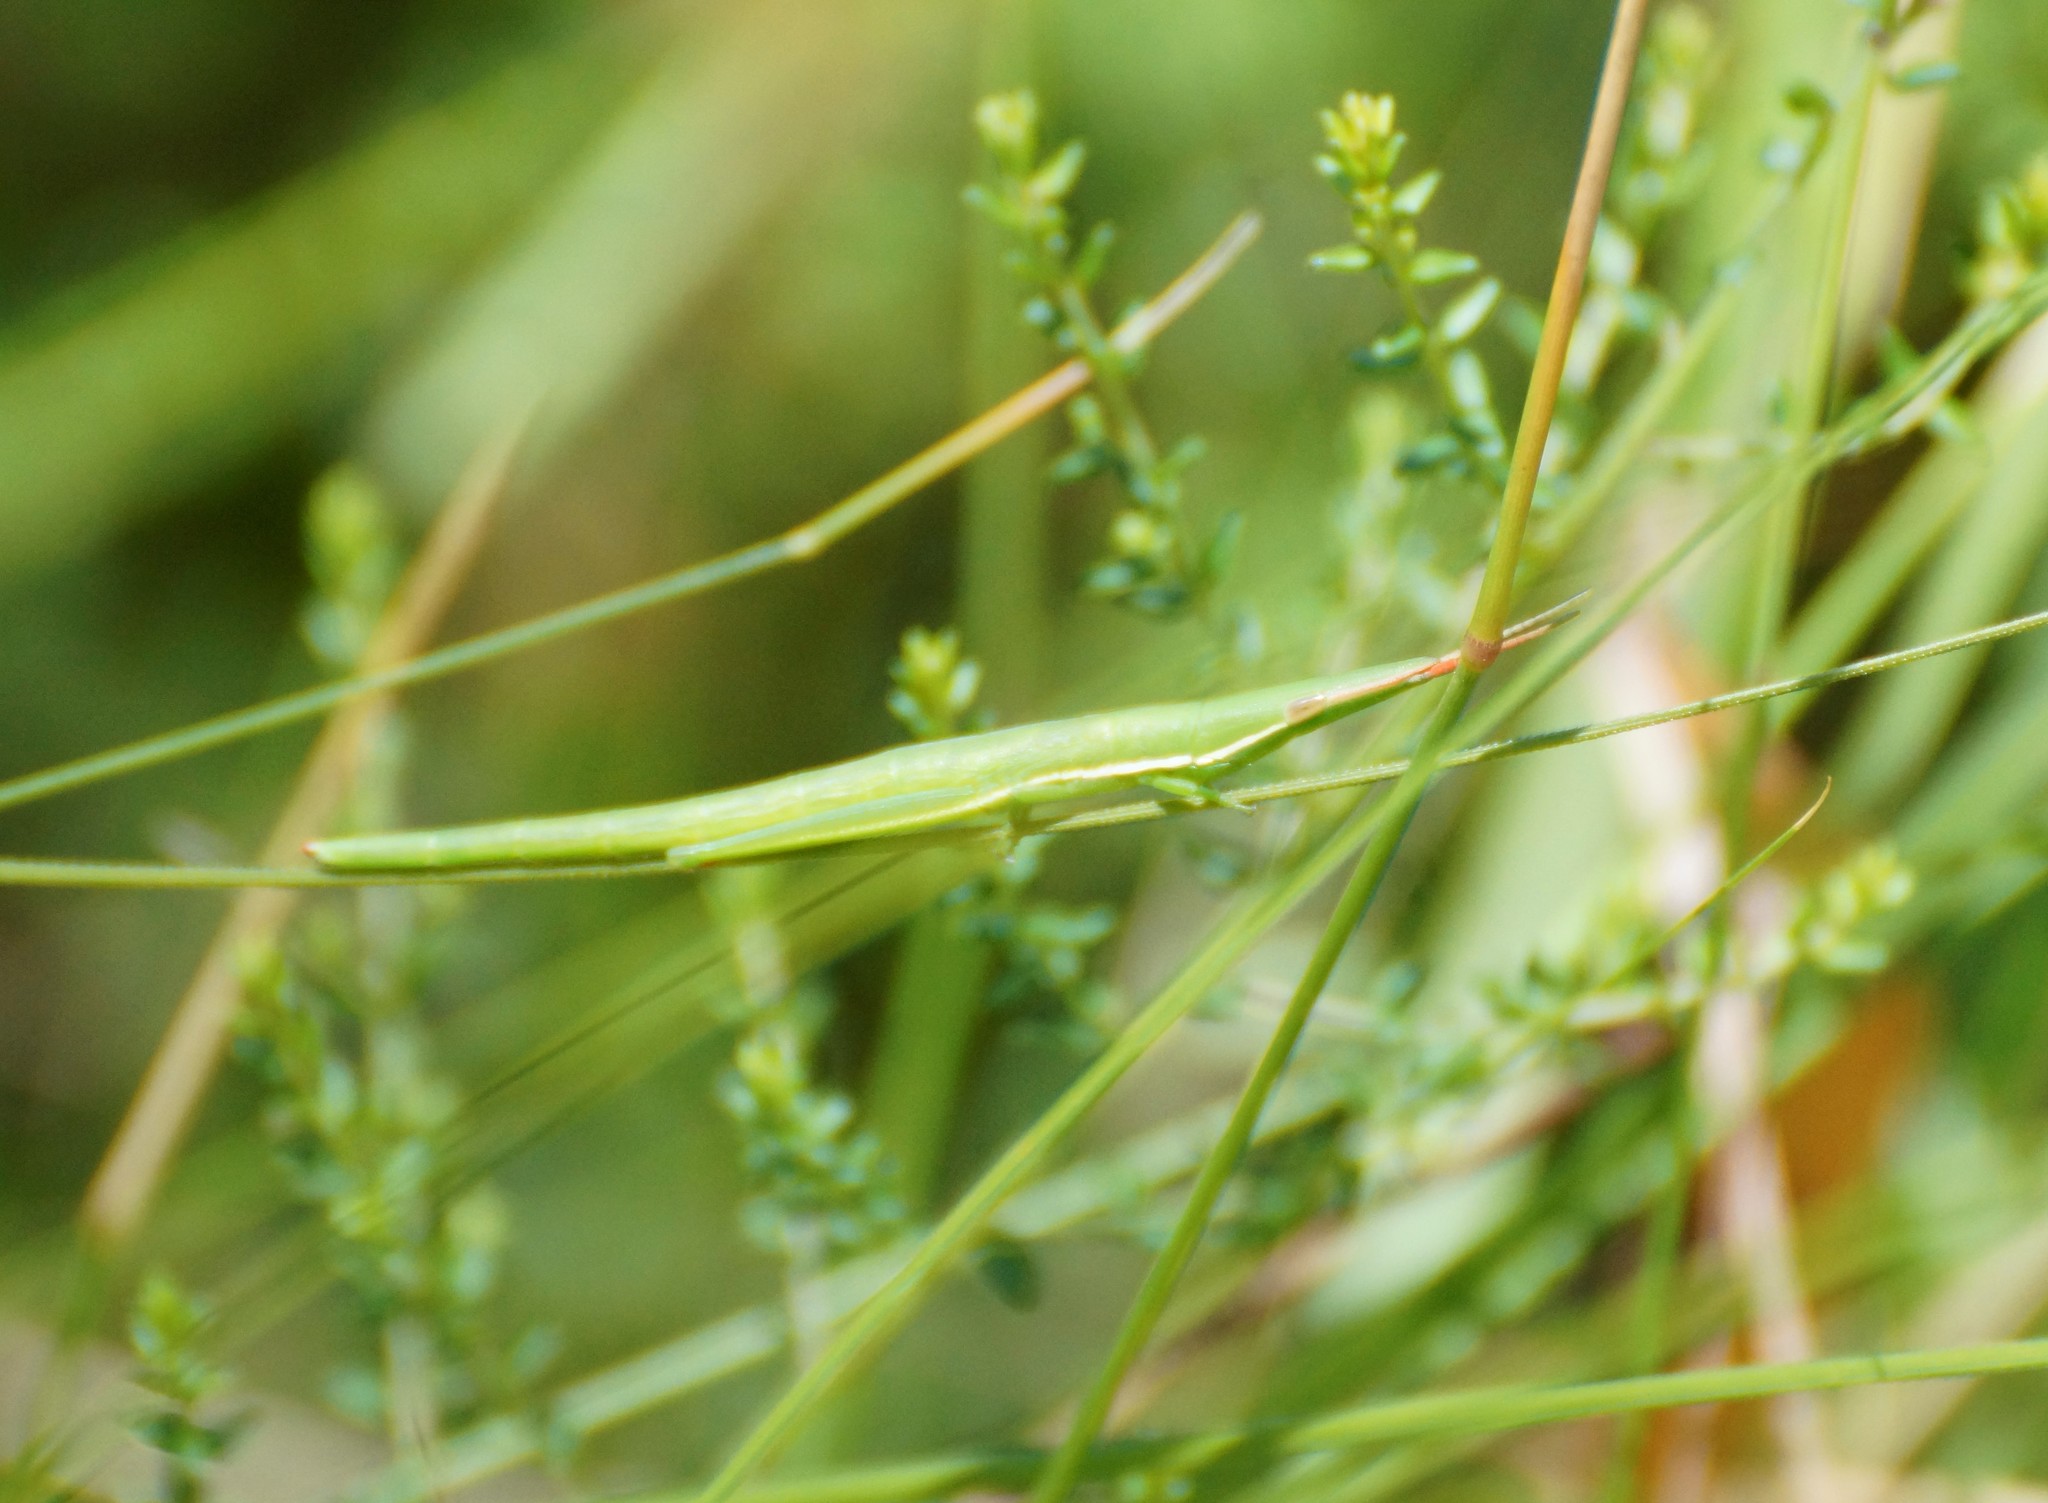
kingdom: Animalia
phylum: Arthropoda
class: Insecta
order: Orthoptera
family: Pyrgomorphidae
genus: Psednura
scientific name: Psednura pedestris
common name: Common psednura
